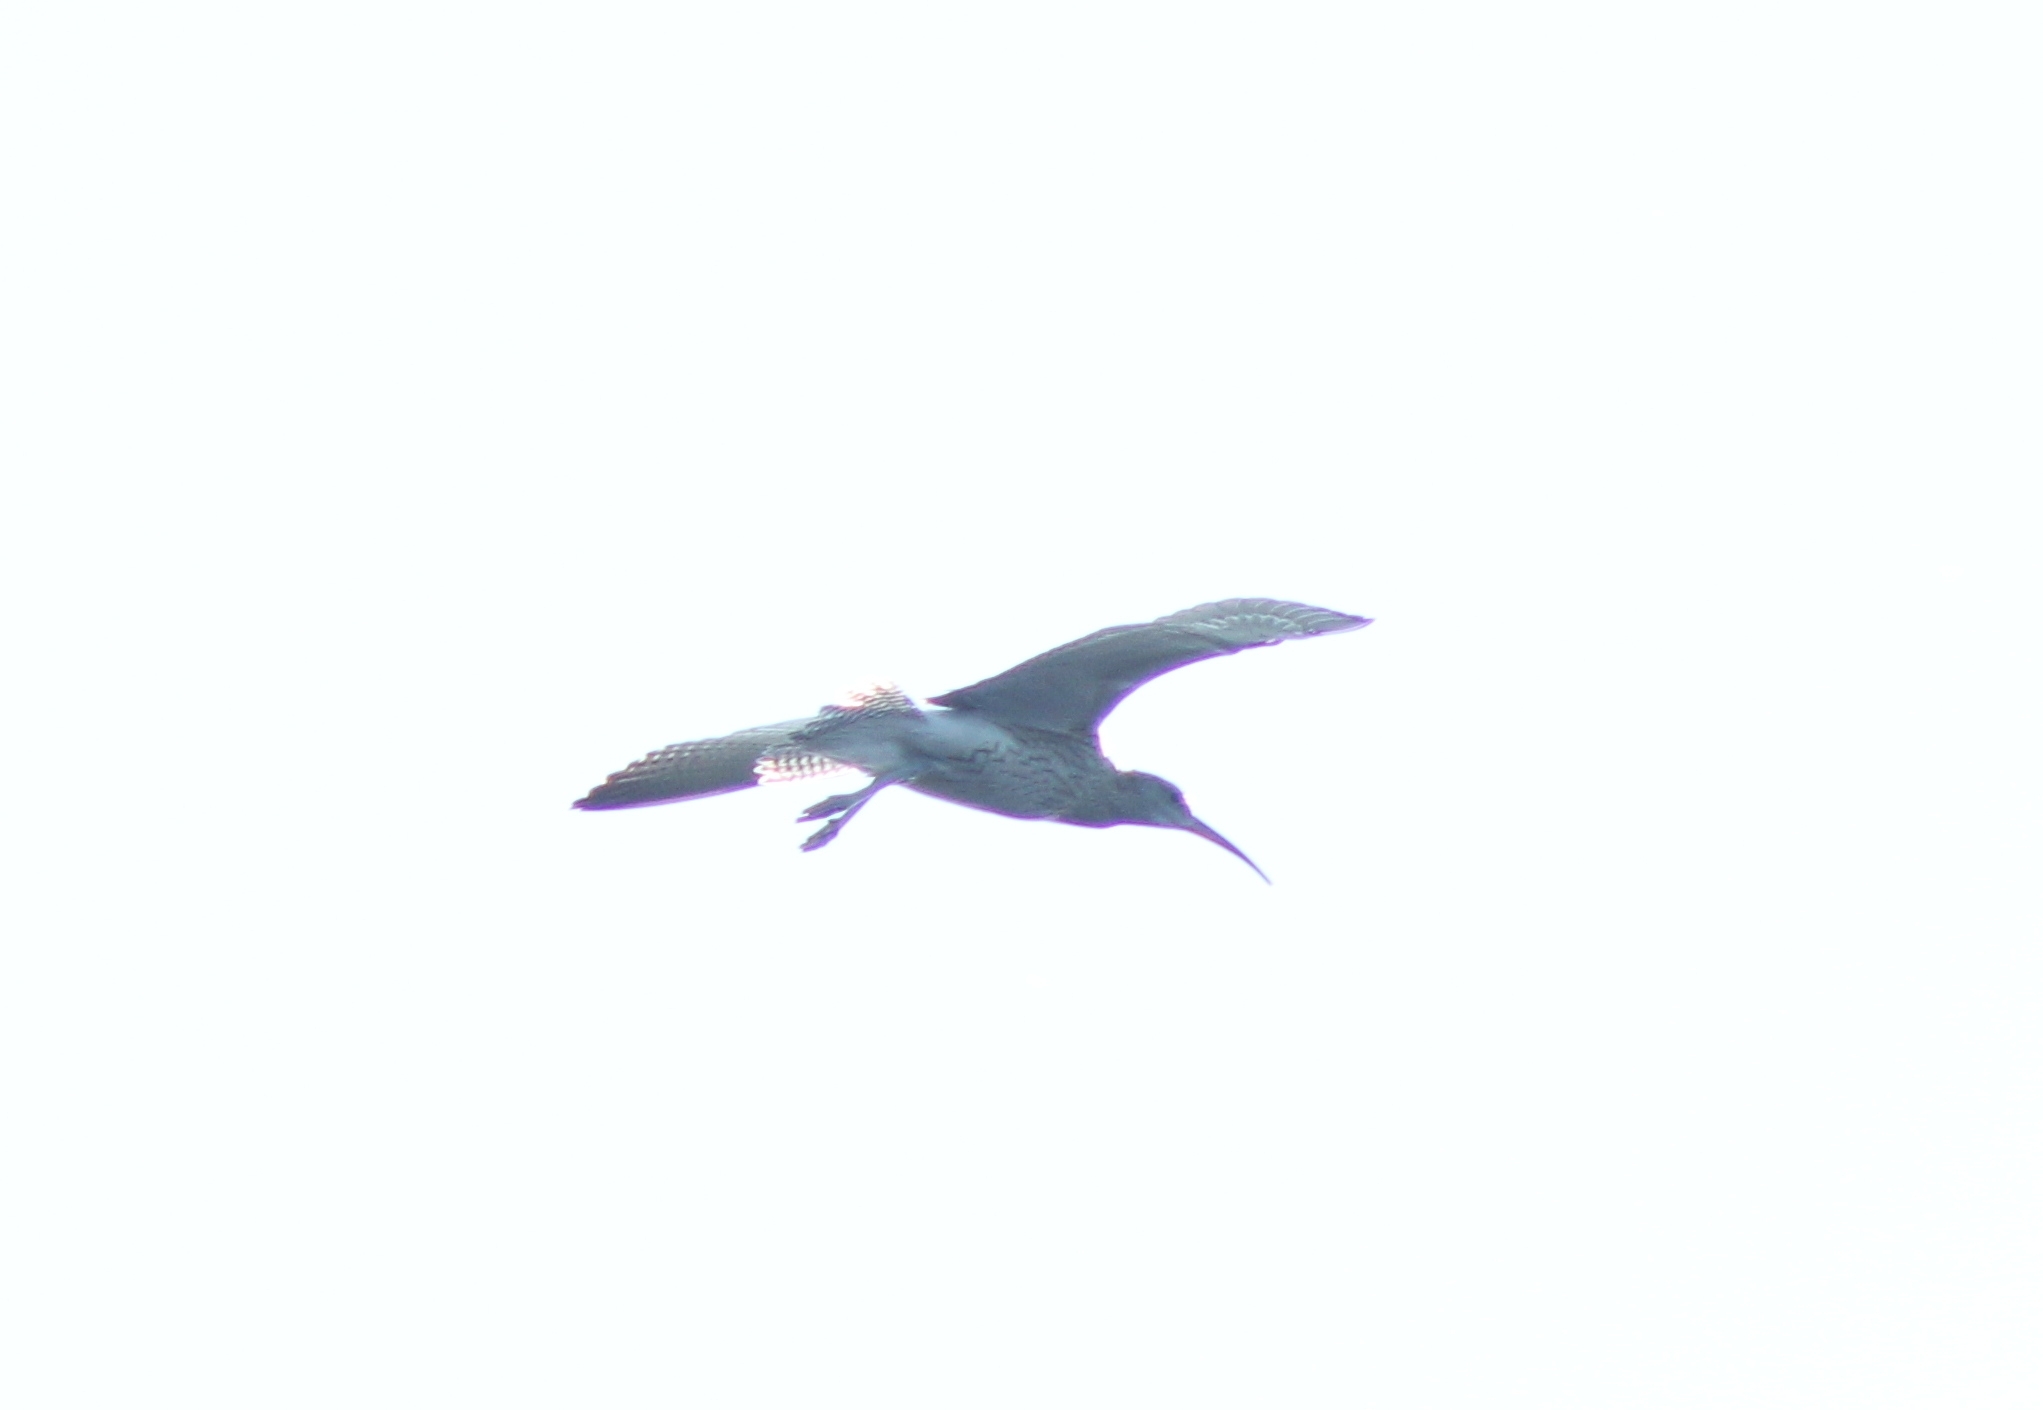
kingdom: Animalia
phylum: Chordata
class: Aves
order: Charadriiformes
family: Scolopacidae
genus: Numenius
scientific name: Numenius arquata
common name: Eurasian curlew
